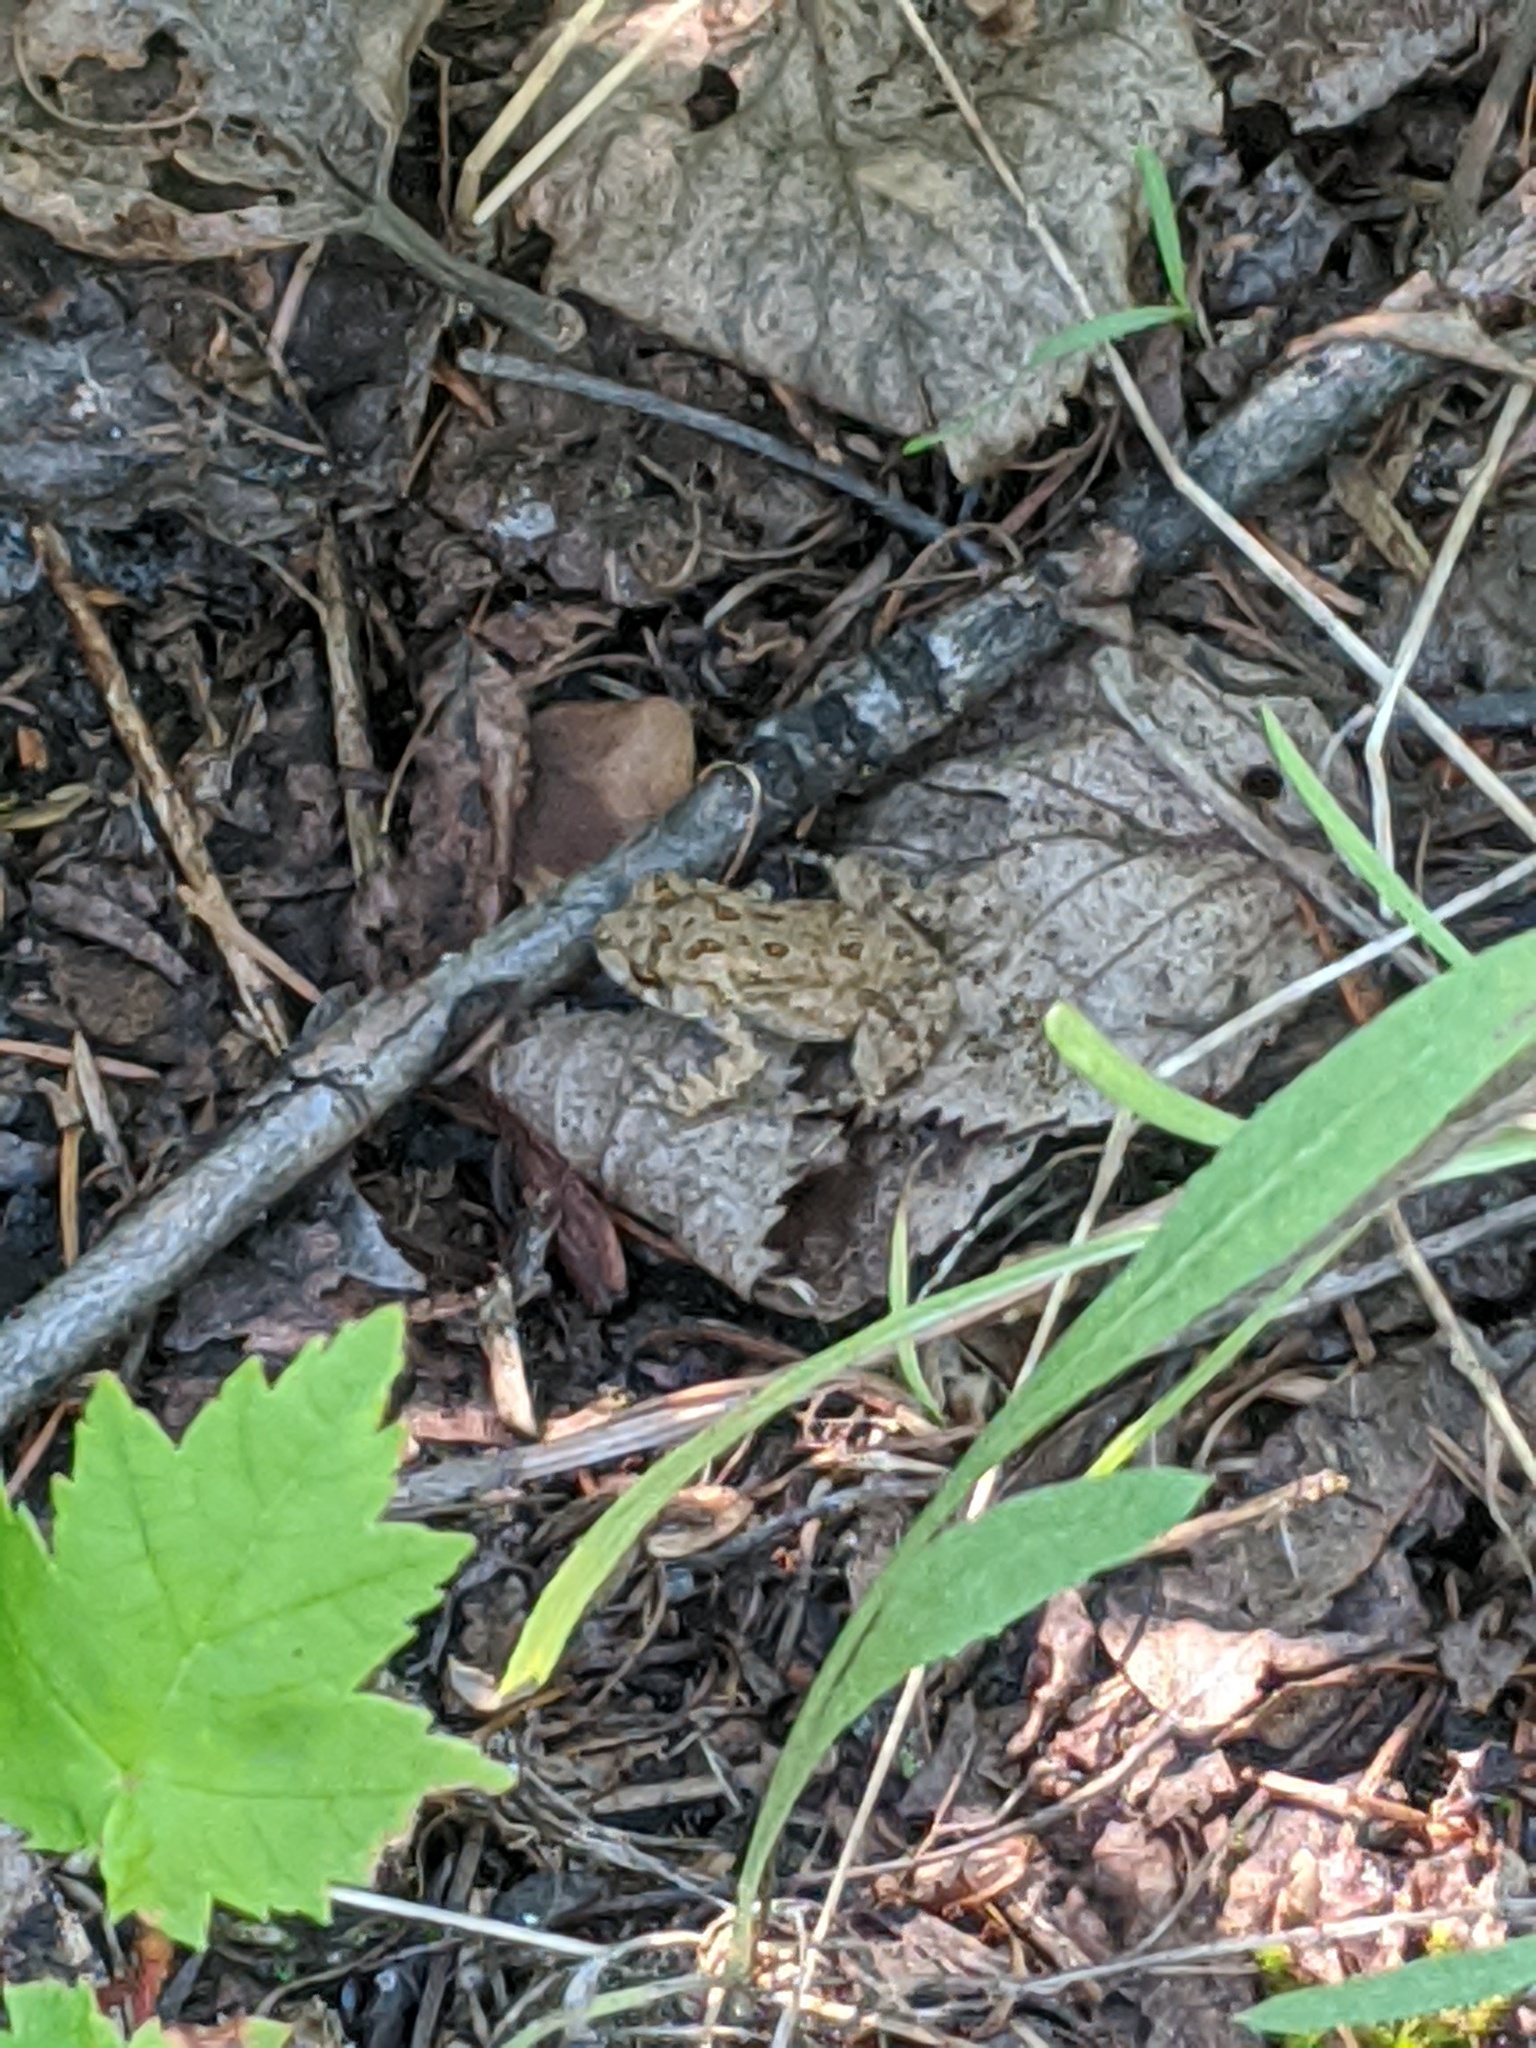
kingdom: Animalia
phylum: Chordata
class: Amphibia
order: Anura
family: Bufonidae
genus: Anaxyrus
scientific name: Anaxyrus americanus
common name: American toad
